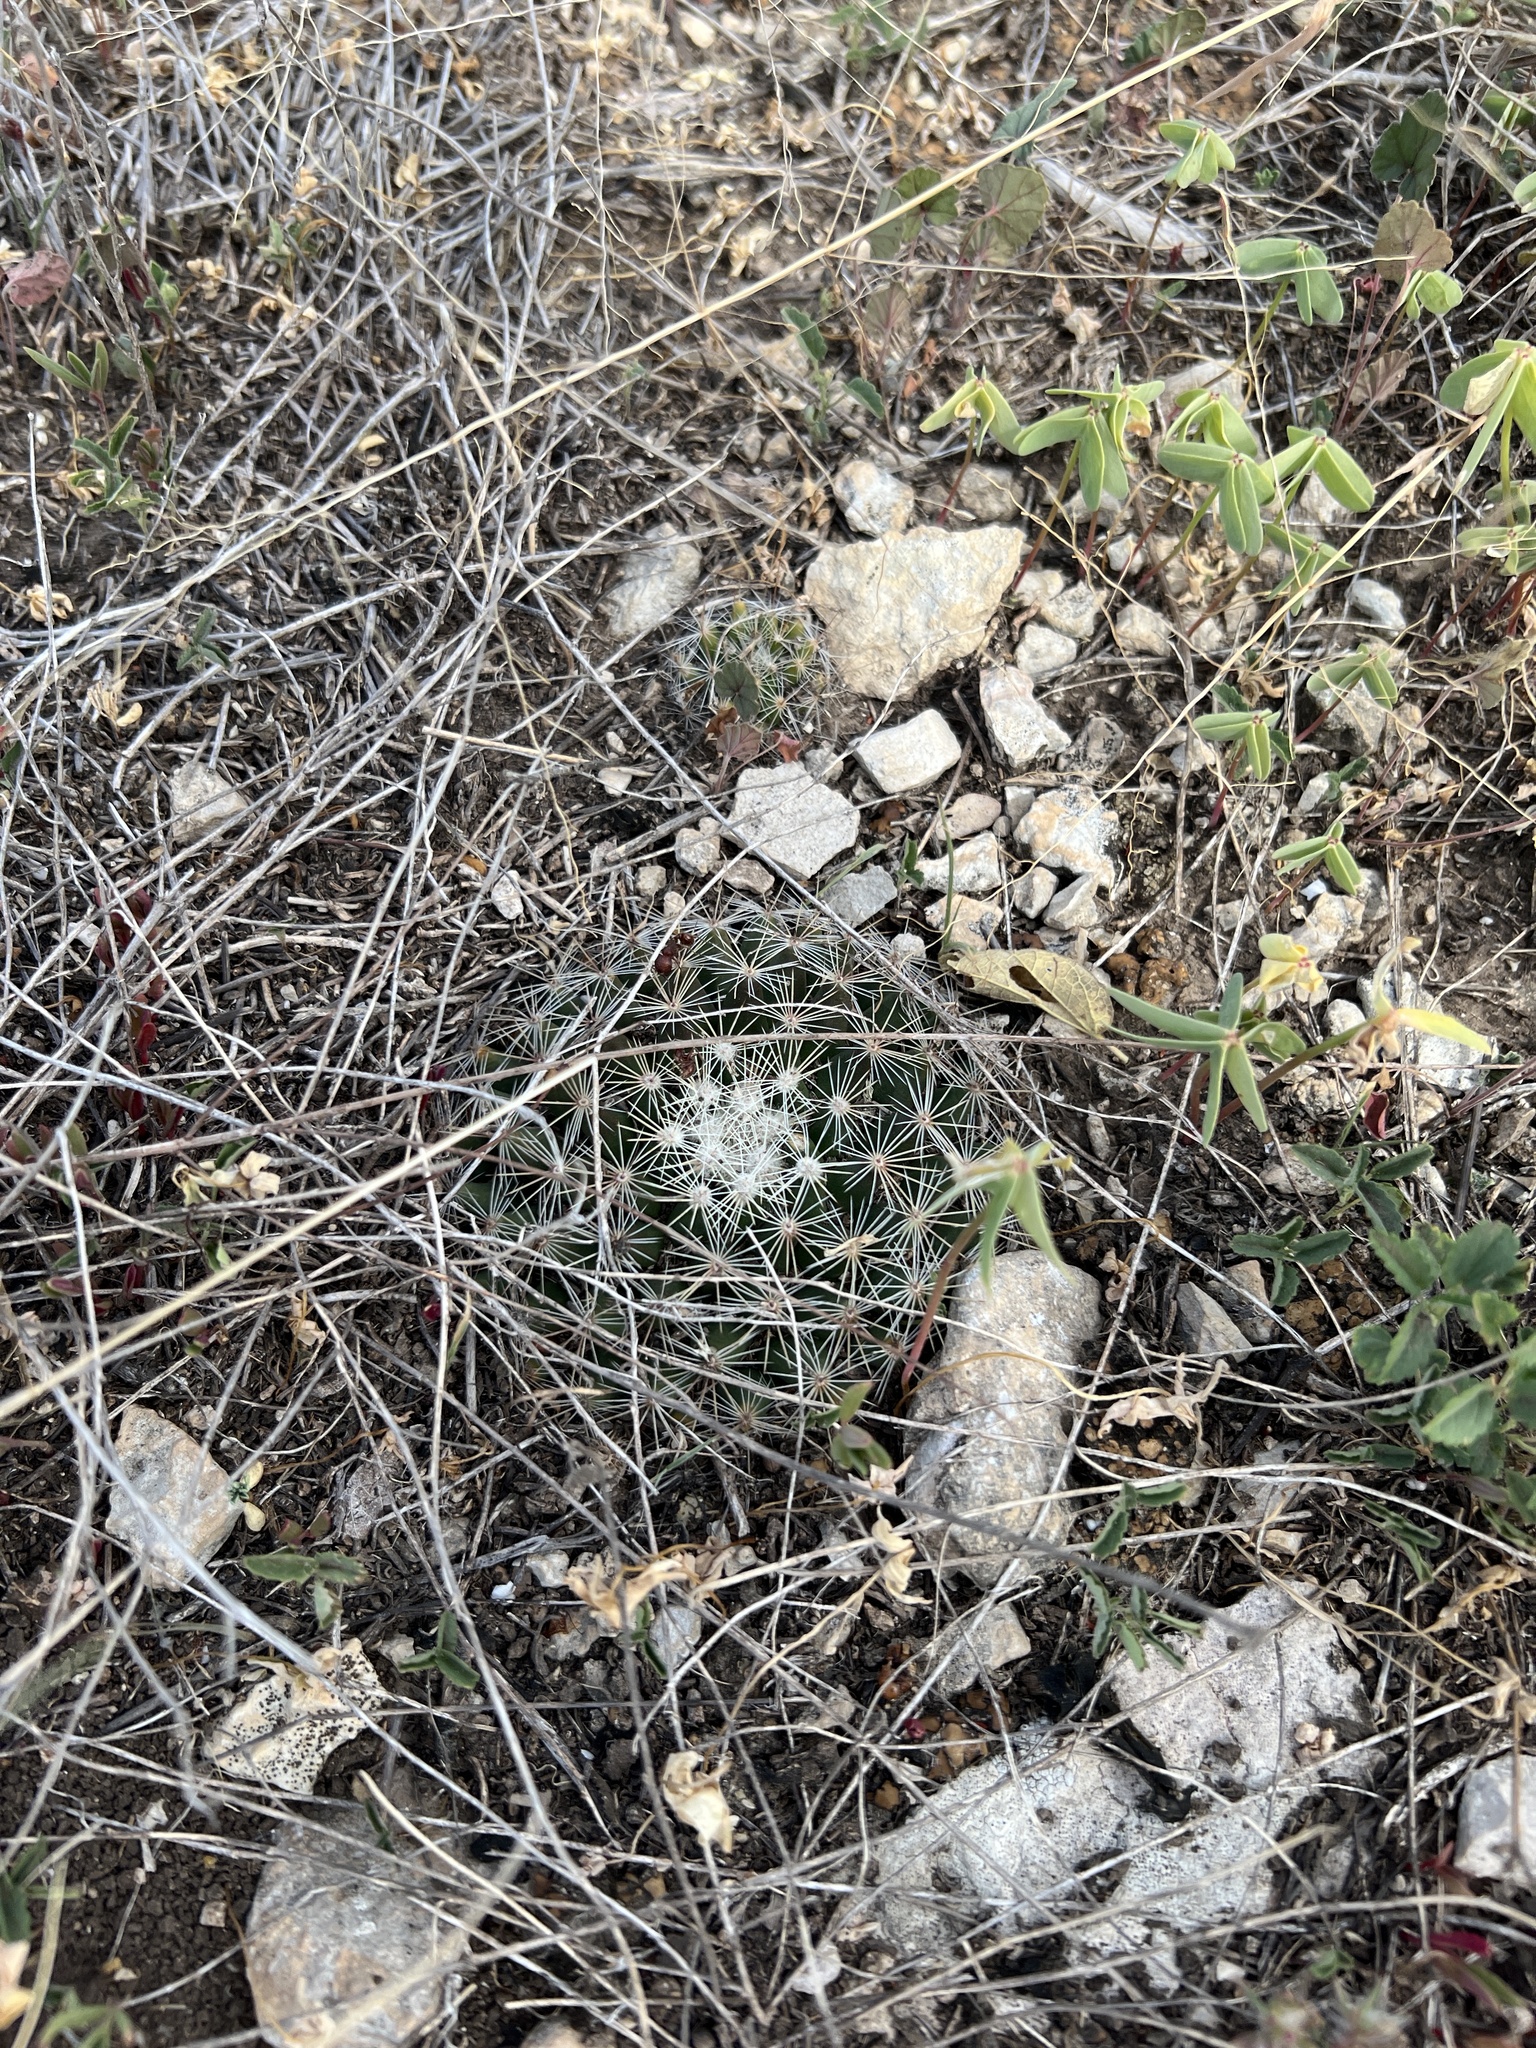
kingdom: Plantae
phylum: Tracheophyta
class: Magnoliopsida
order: Caryophyllales
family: Cactaceae
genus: Mammillaria
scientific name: Mammillaria heyderi
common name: Little nipple cactus
